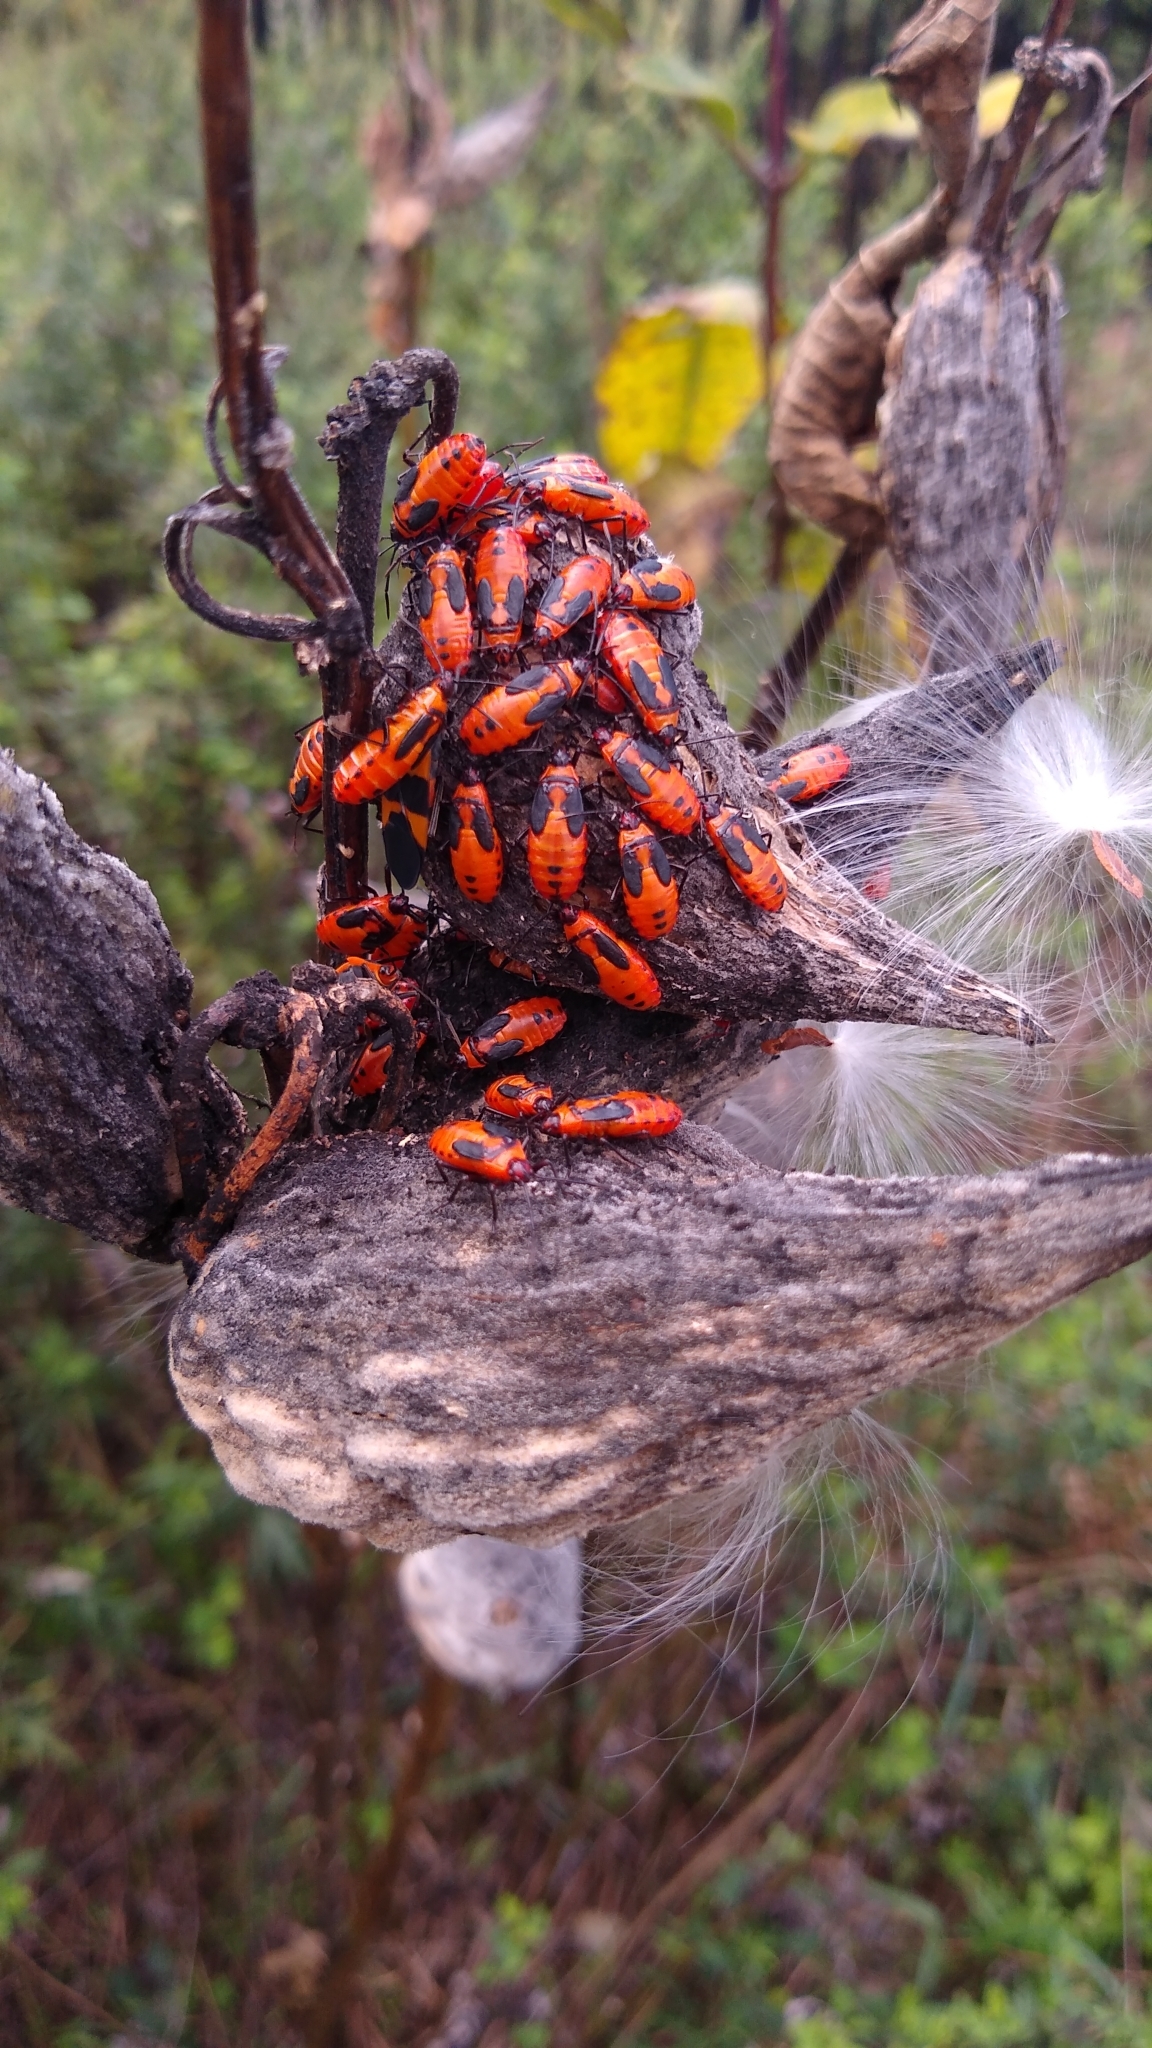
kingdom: Animalia
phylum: Arthropoda
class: Insecta
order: Hemiptera
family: Lygaeidae
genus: Oncopeltus
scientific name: Oncopeltus fasciatus
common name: Large milkweed bug
